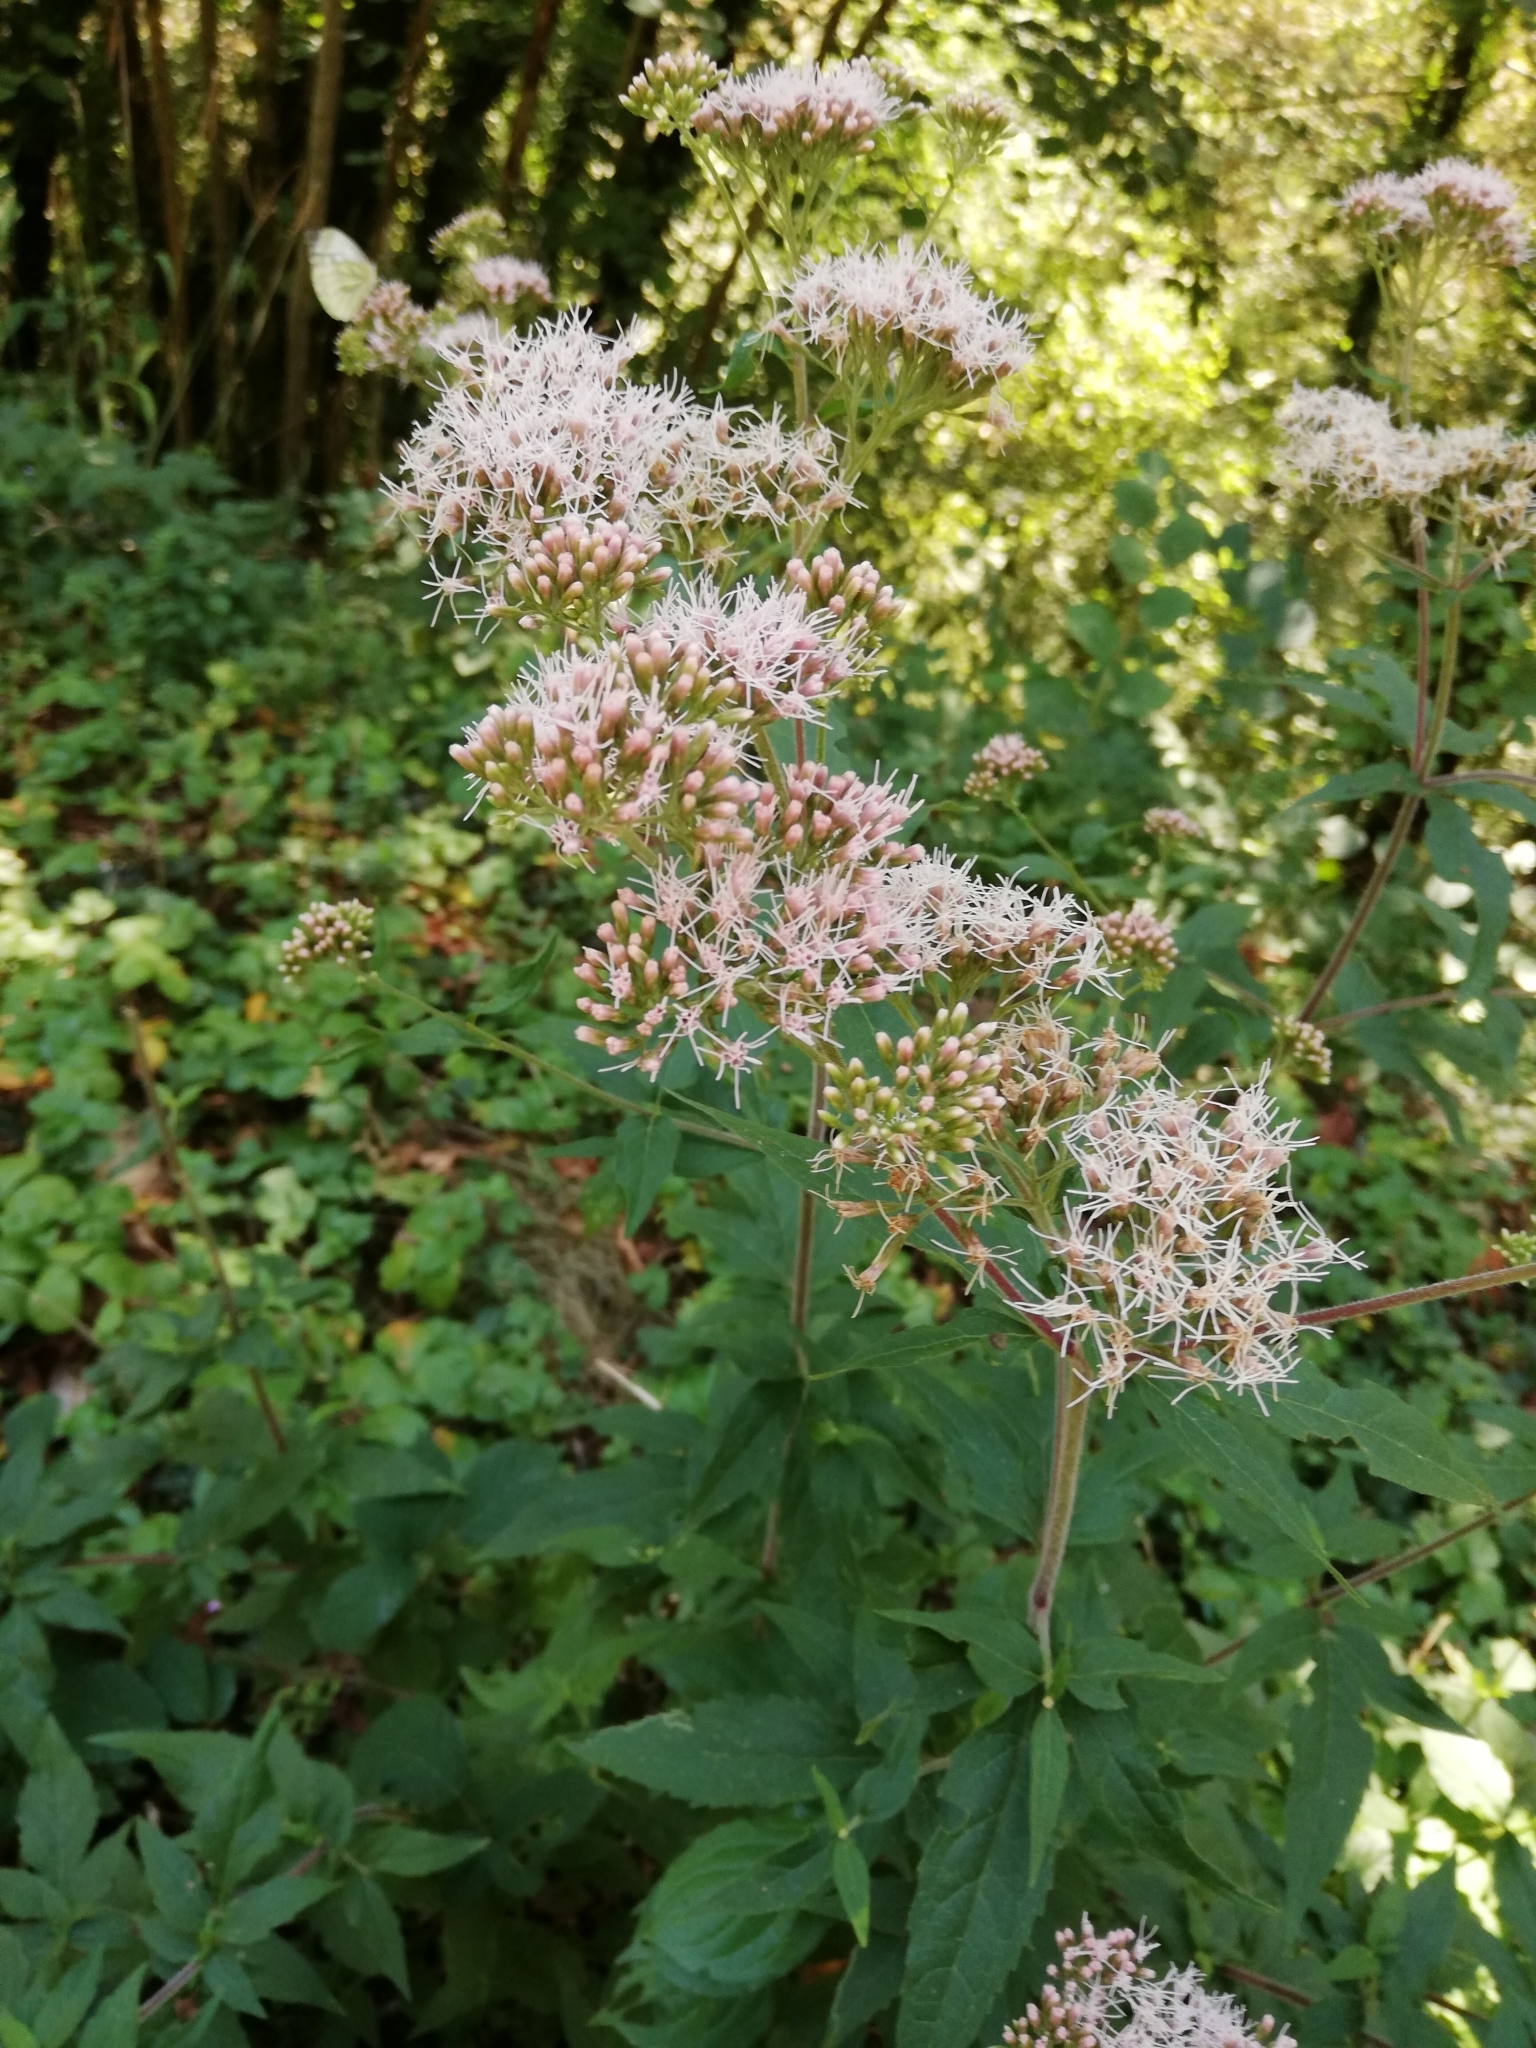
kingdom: Plantae
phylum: Tracheophyta
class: Magnoliopsida
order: Asterales
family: Asteraceae
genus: Eupatorium
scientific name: Eupatorium cannabinum
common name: Hemp-agrimony
